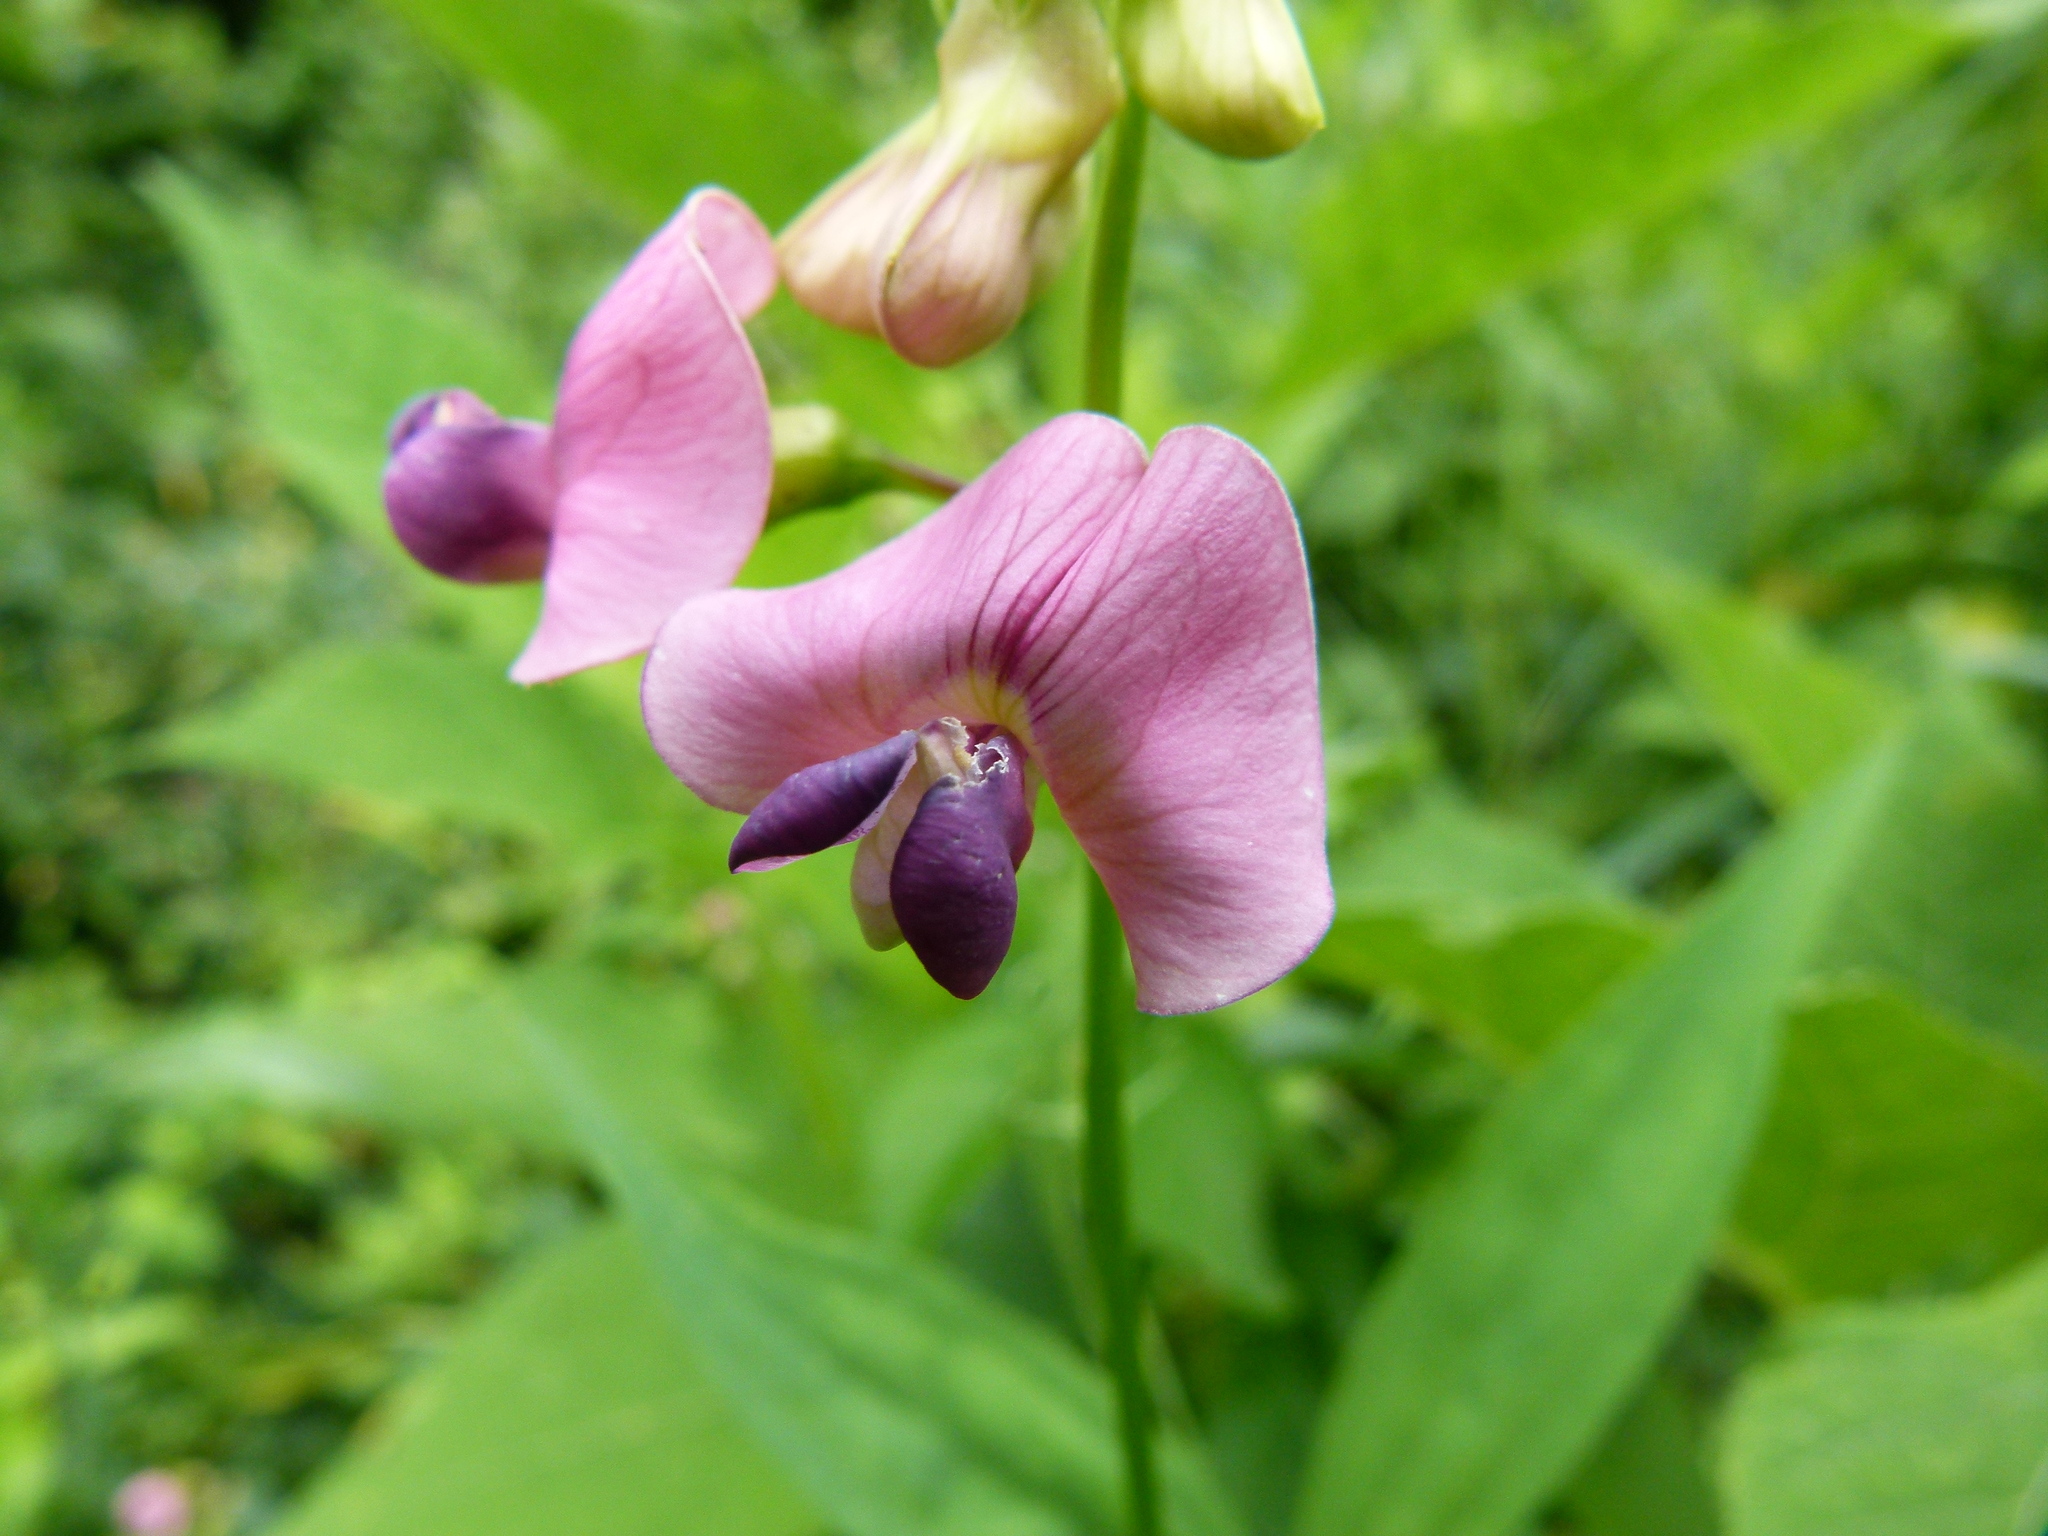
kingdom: Plantae
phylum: Tracheophyta
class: Magnoliopsida
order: Fabales
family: Fabaceae
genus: Lathyrus
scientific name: Lathyrus sylvestris
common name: Flat pea
